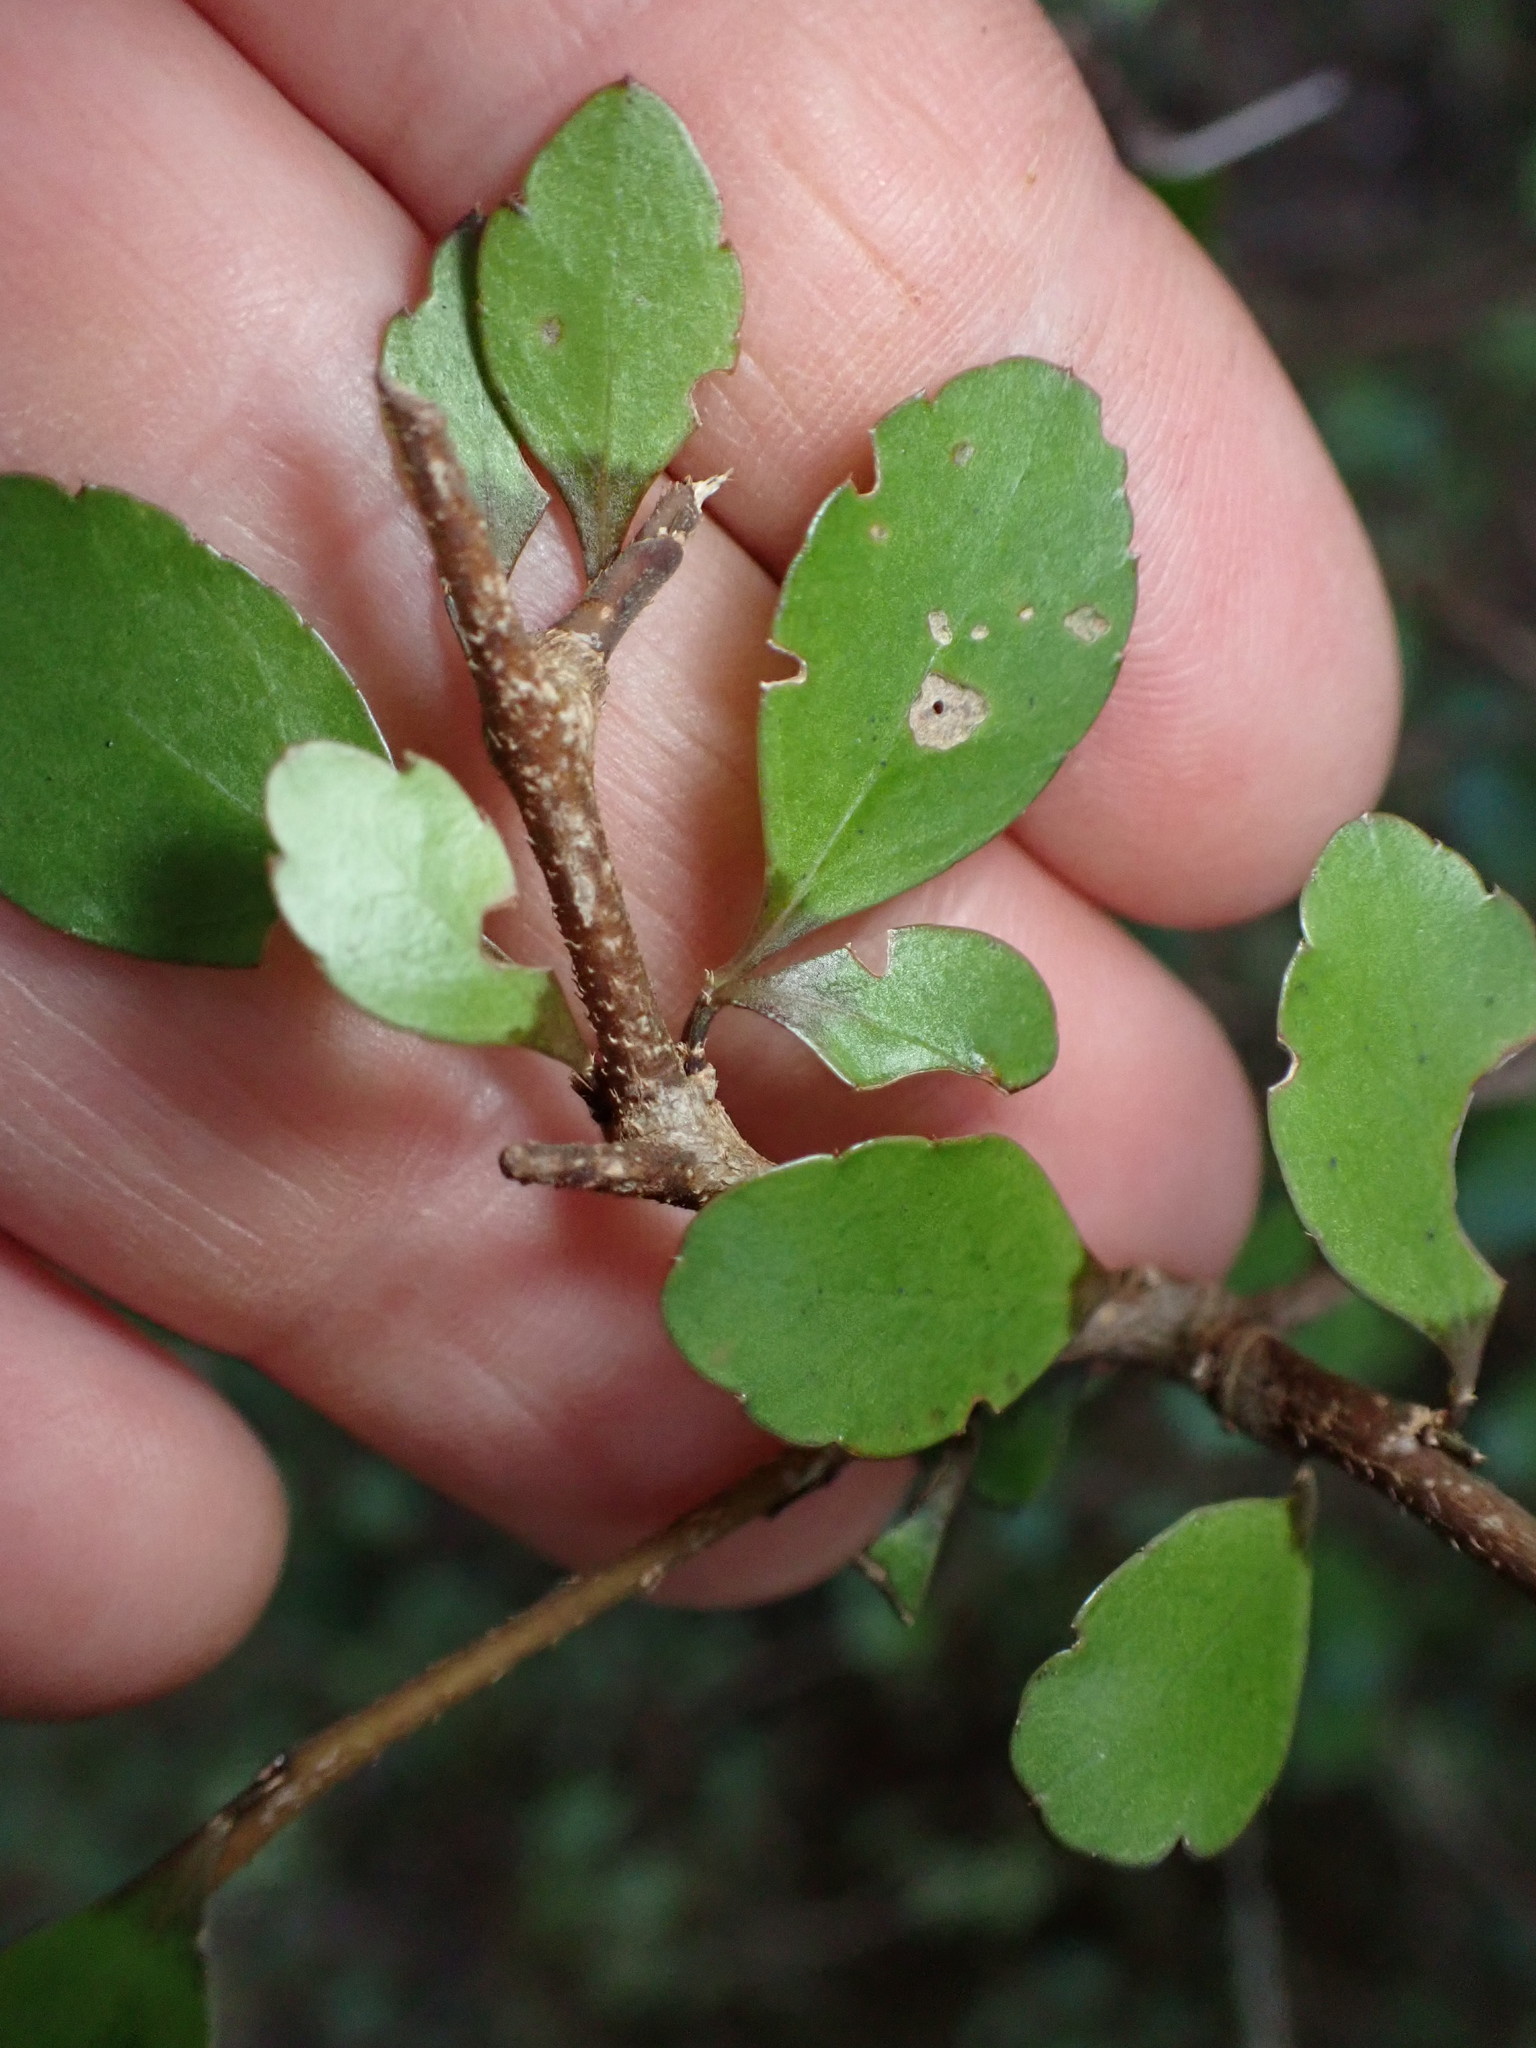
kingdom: Plantae
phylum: Tracheophyta
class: Magnoliopsida
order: Apiales
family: Araliaceae
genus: Raukaua
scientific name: Raukaua anomalus
